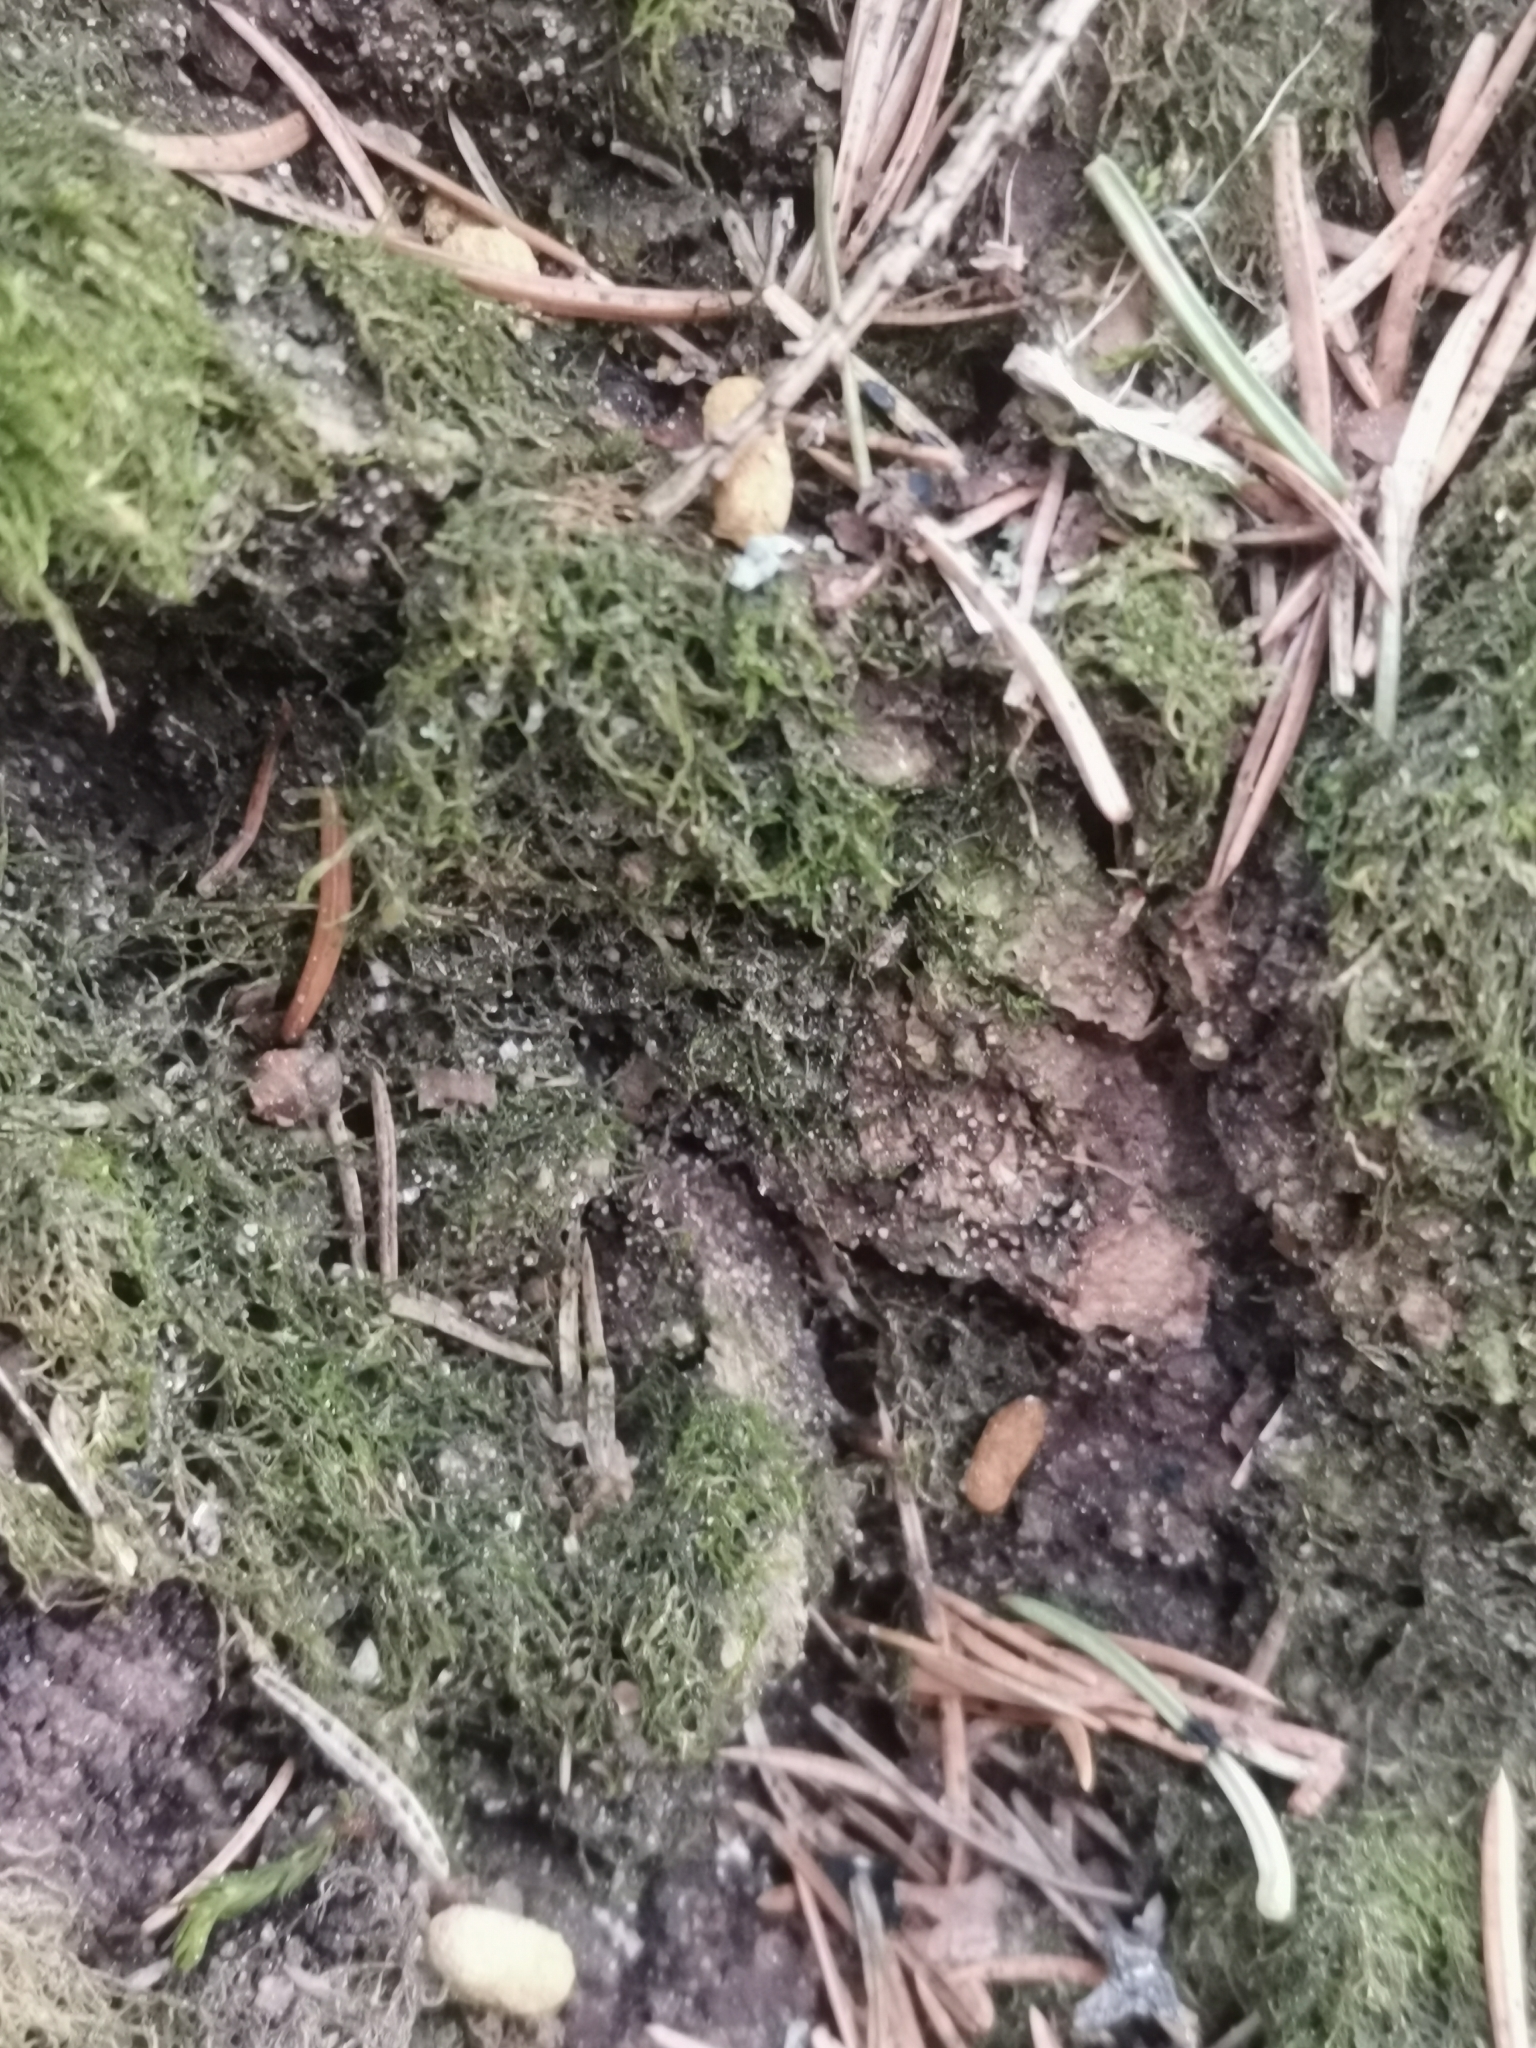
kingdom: Animalia
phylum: Chordata
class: Mammalia
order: Rodentia
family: Sciuridae
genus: Pteromys
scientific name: Pteromys volans
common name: Siberian flying squirrel
